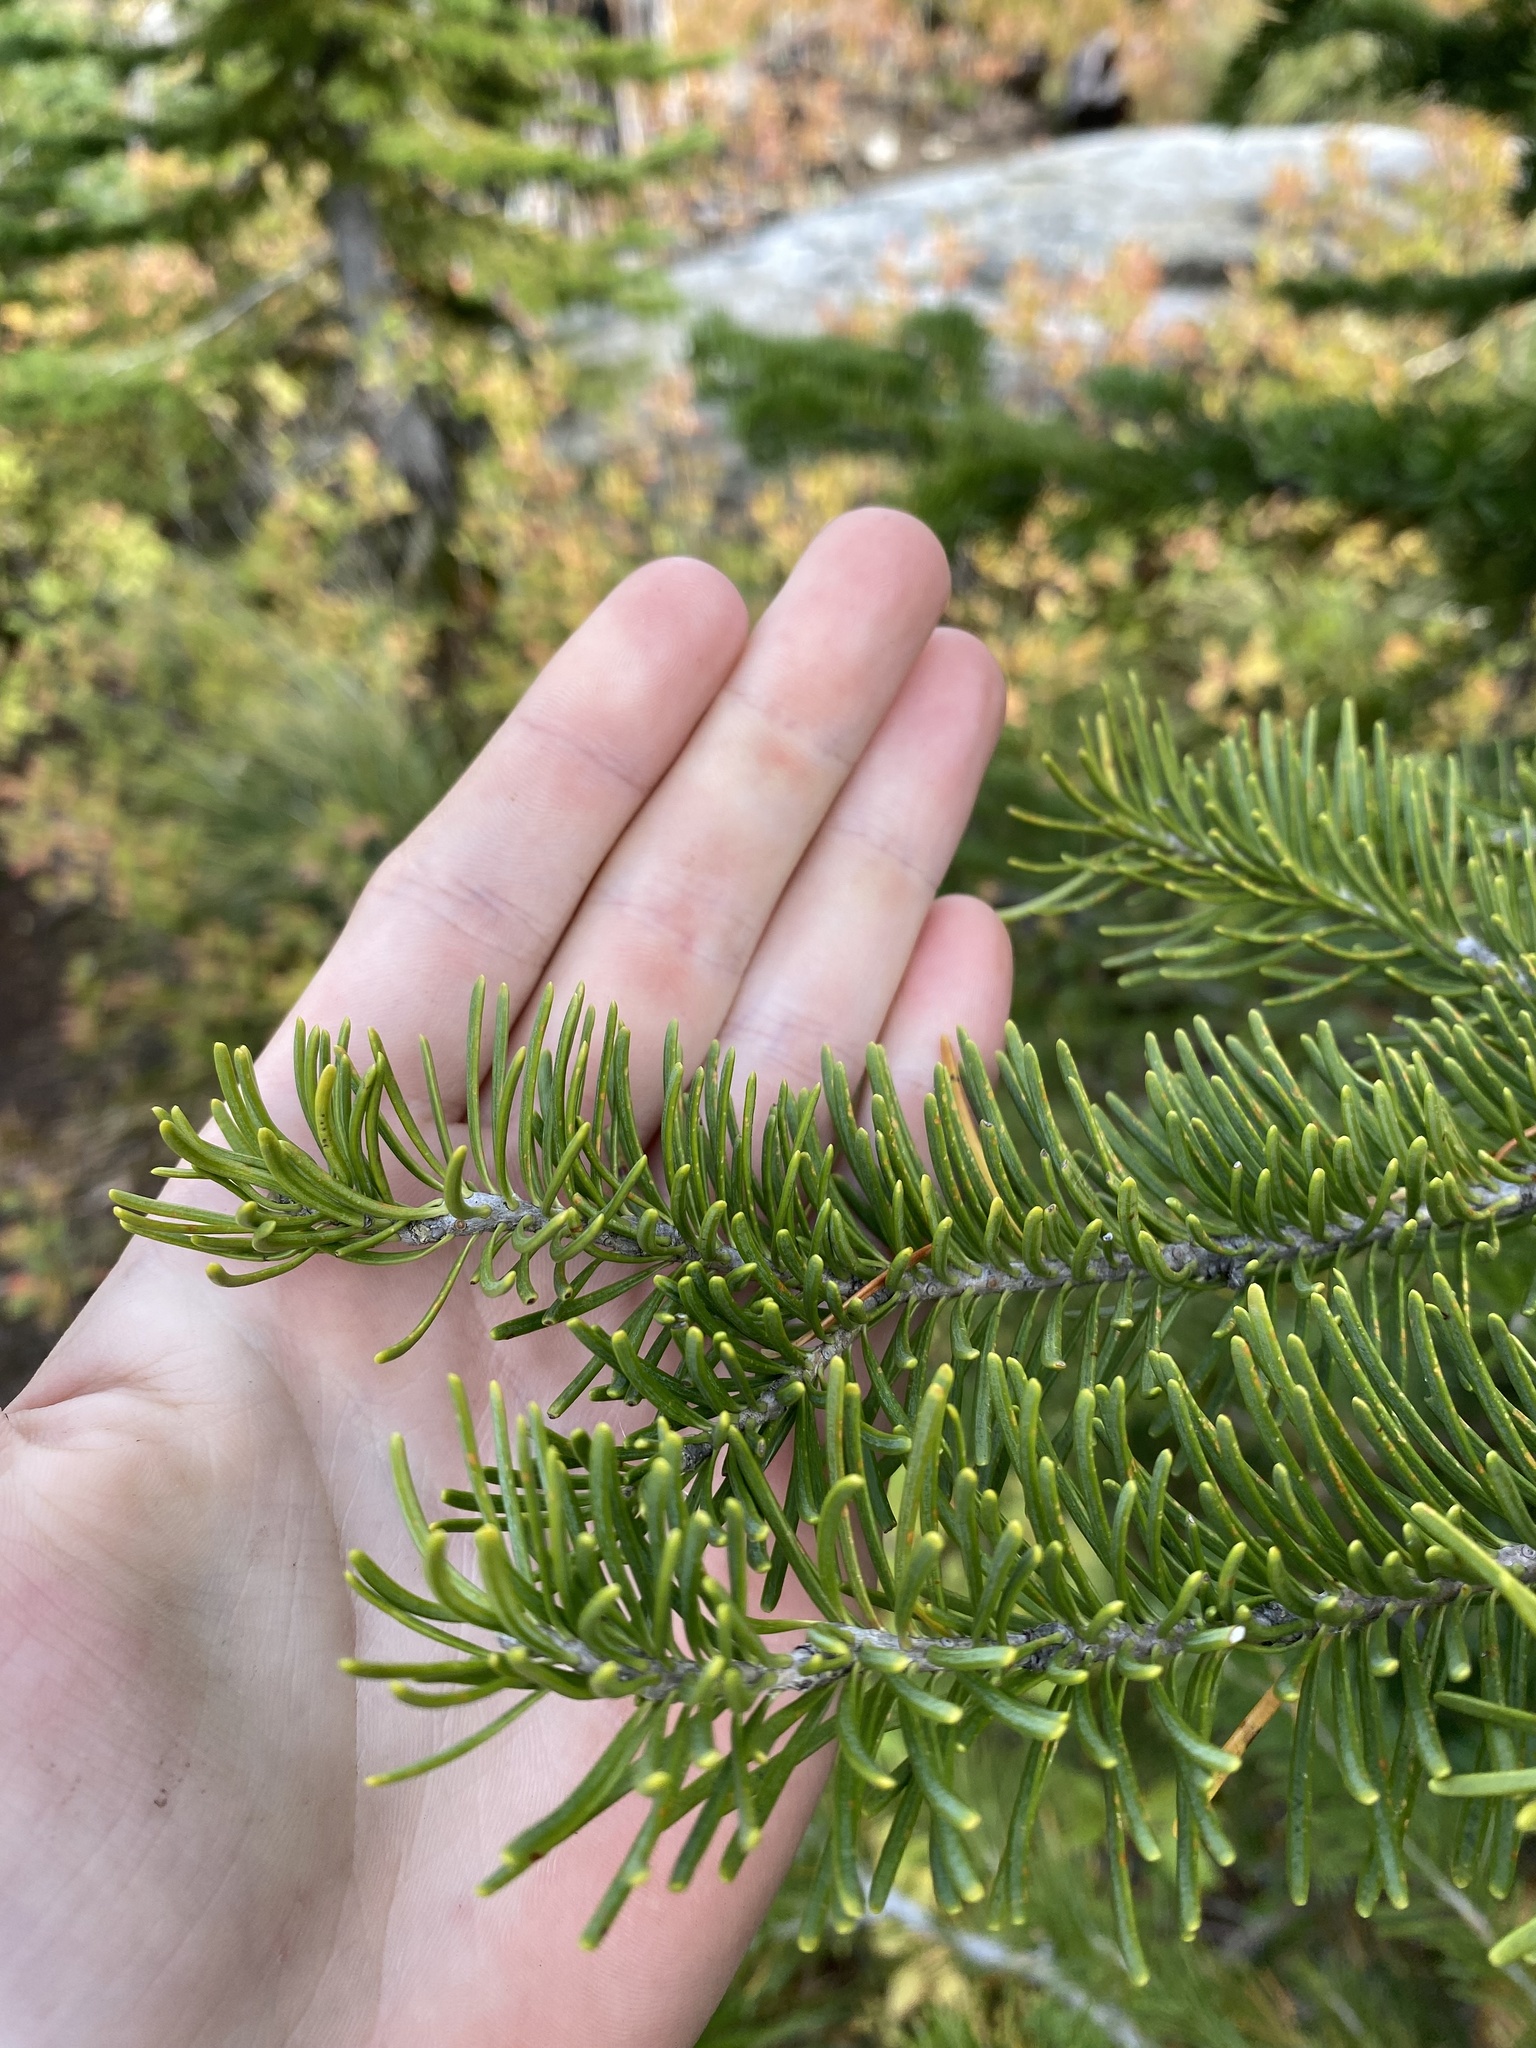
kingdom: Plantae
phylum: Tracheophyta
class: Pinopsida
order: Pinales
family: Pinaceae
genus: Abies
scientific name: Abies lasiocarpa
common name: Subalpine fir
